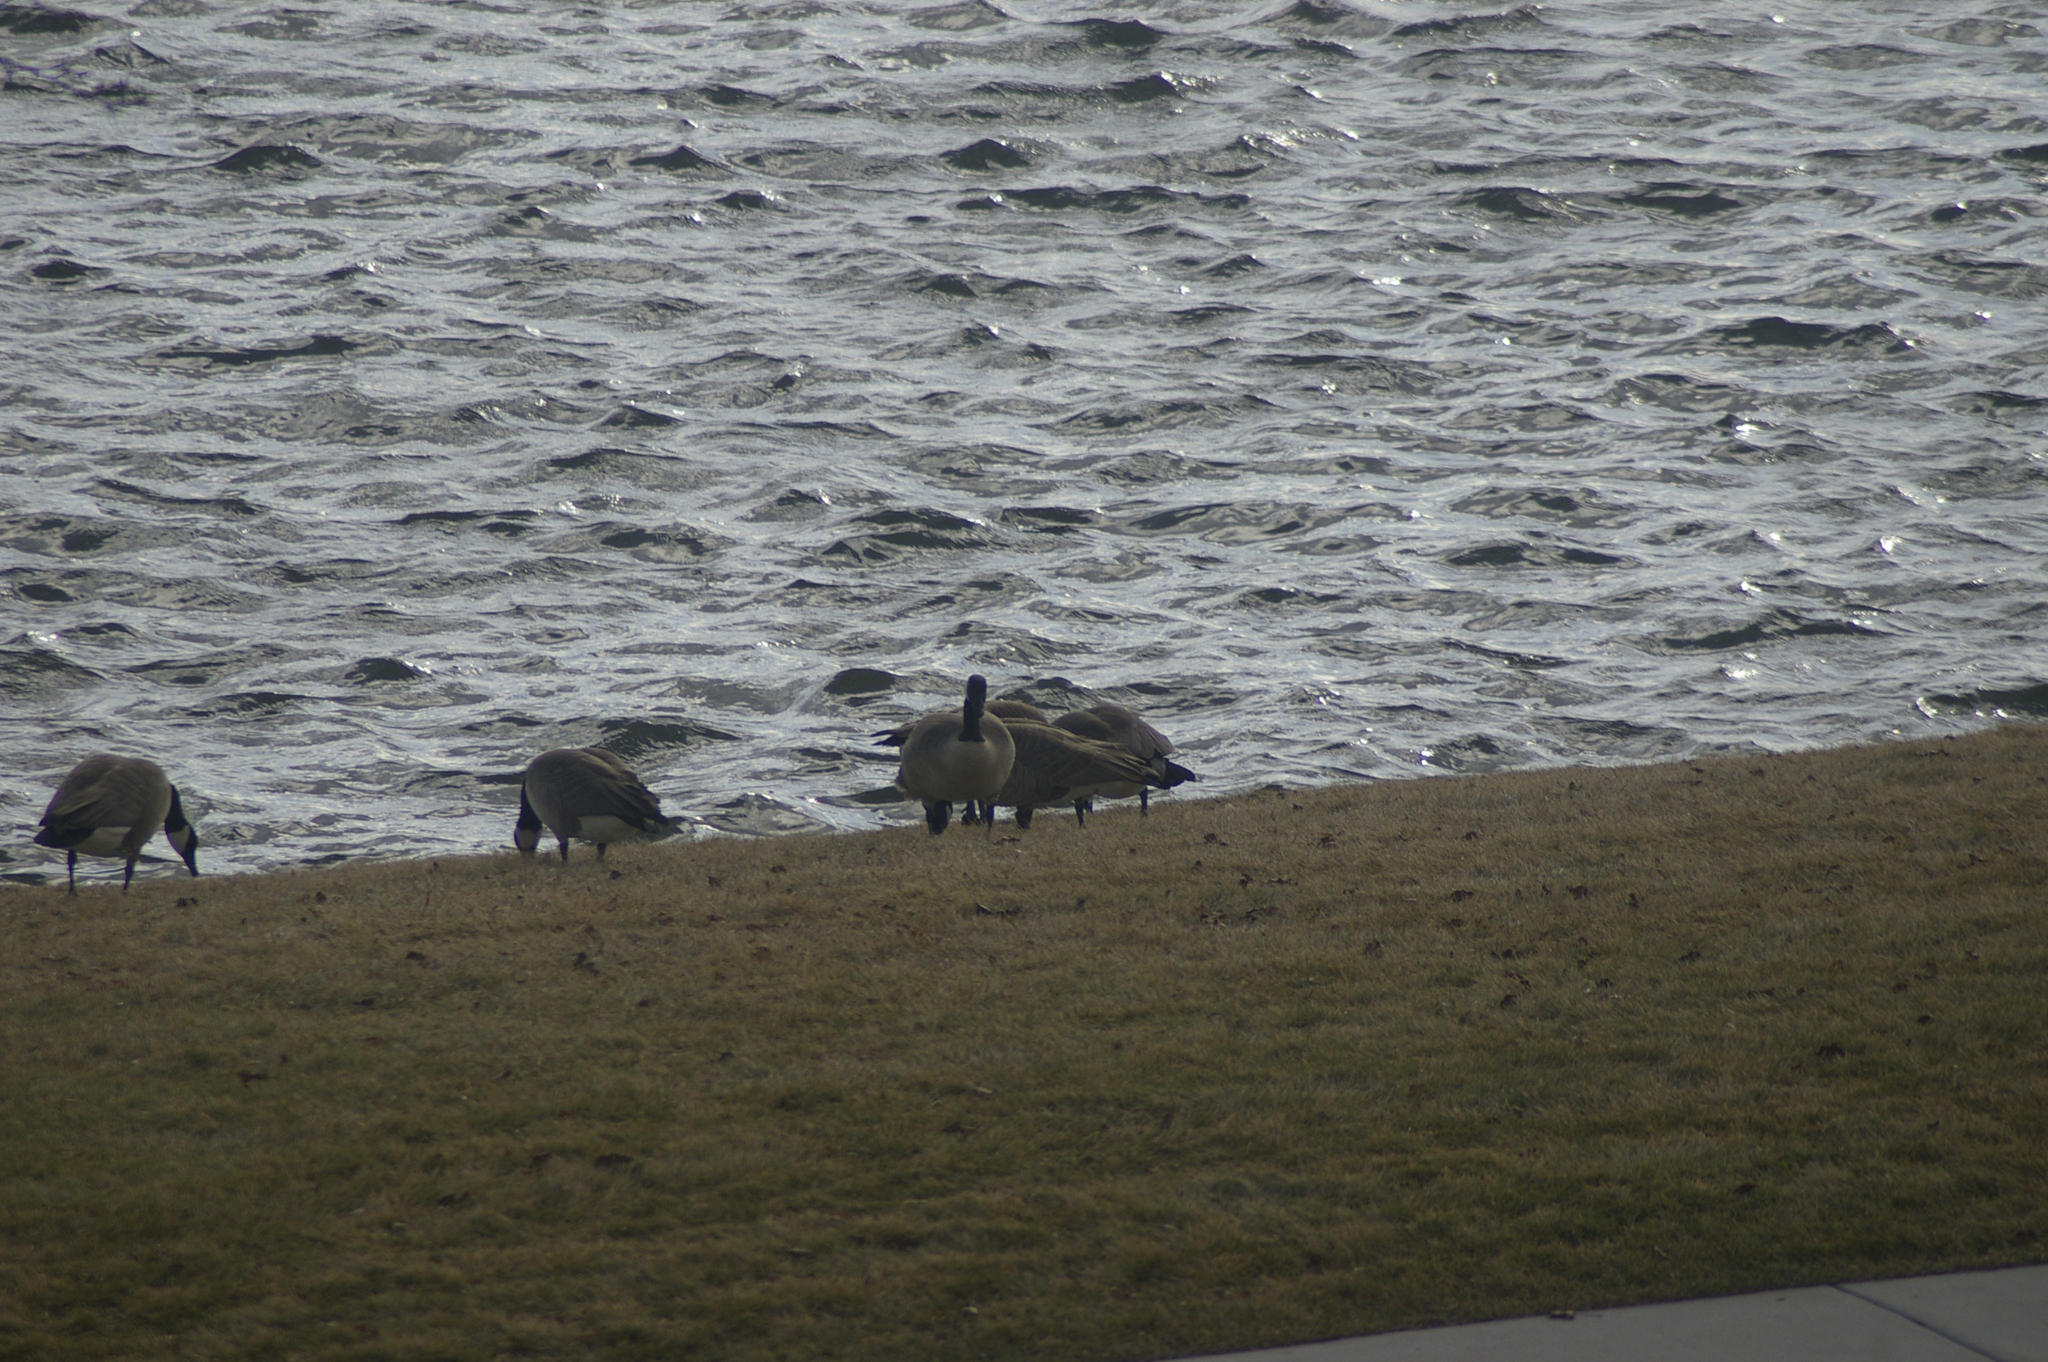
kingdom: Animalia
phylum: Chordata
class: Aves
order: Anseriformes
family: Anatidae
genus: Branta
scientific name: Branta canadensis
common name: Canada goose
